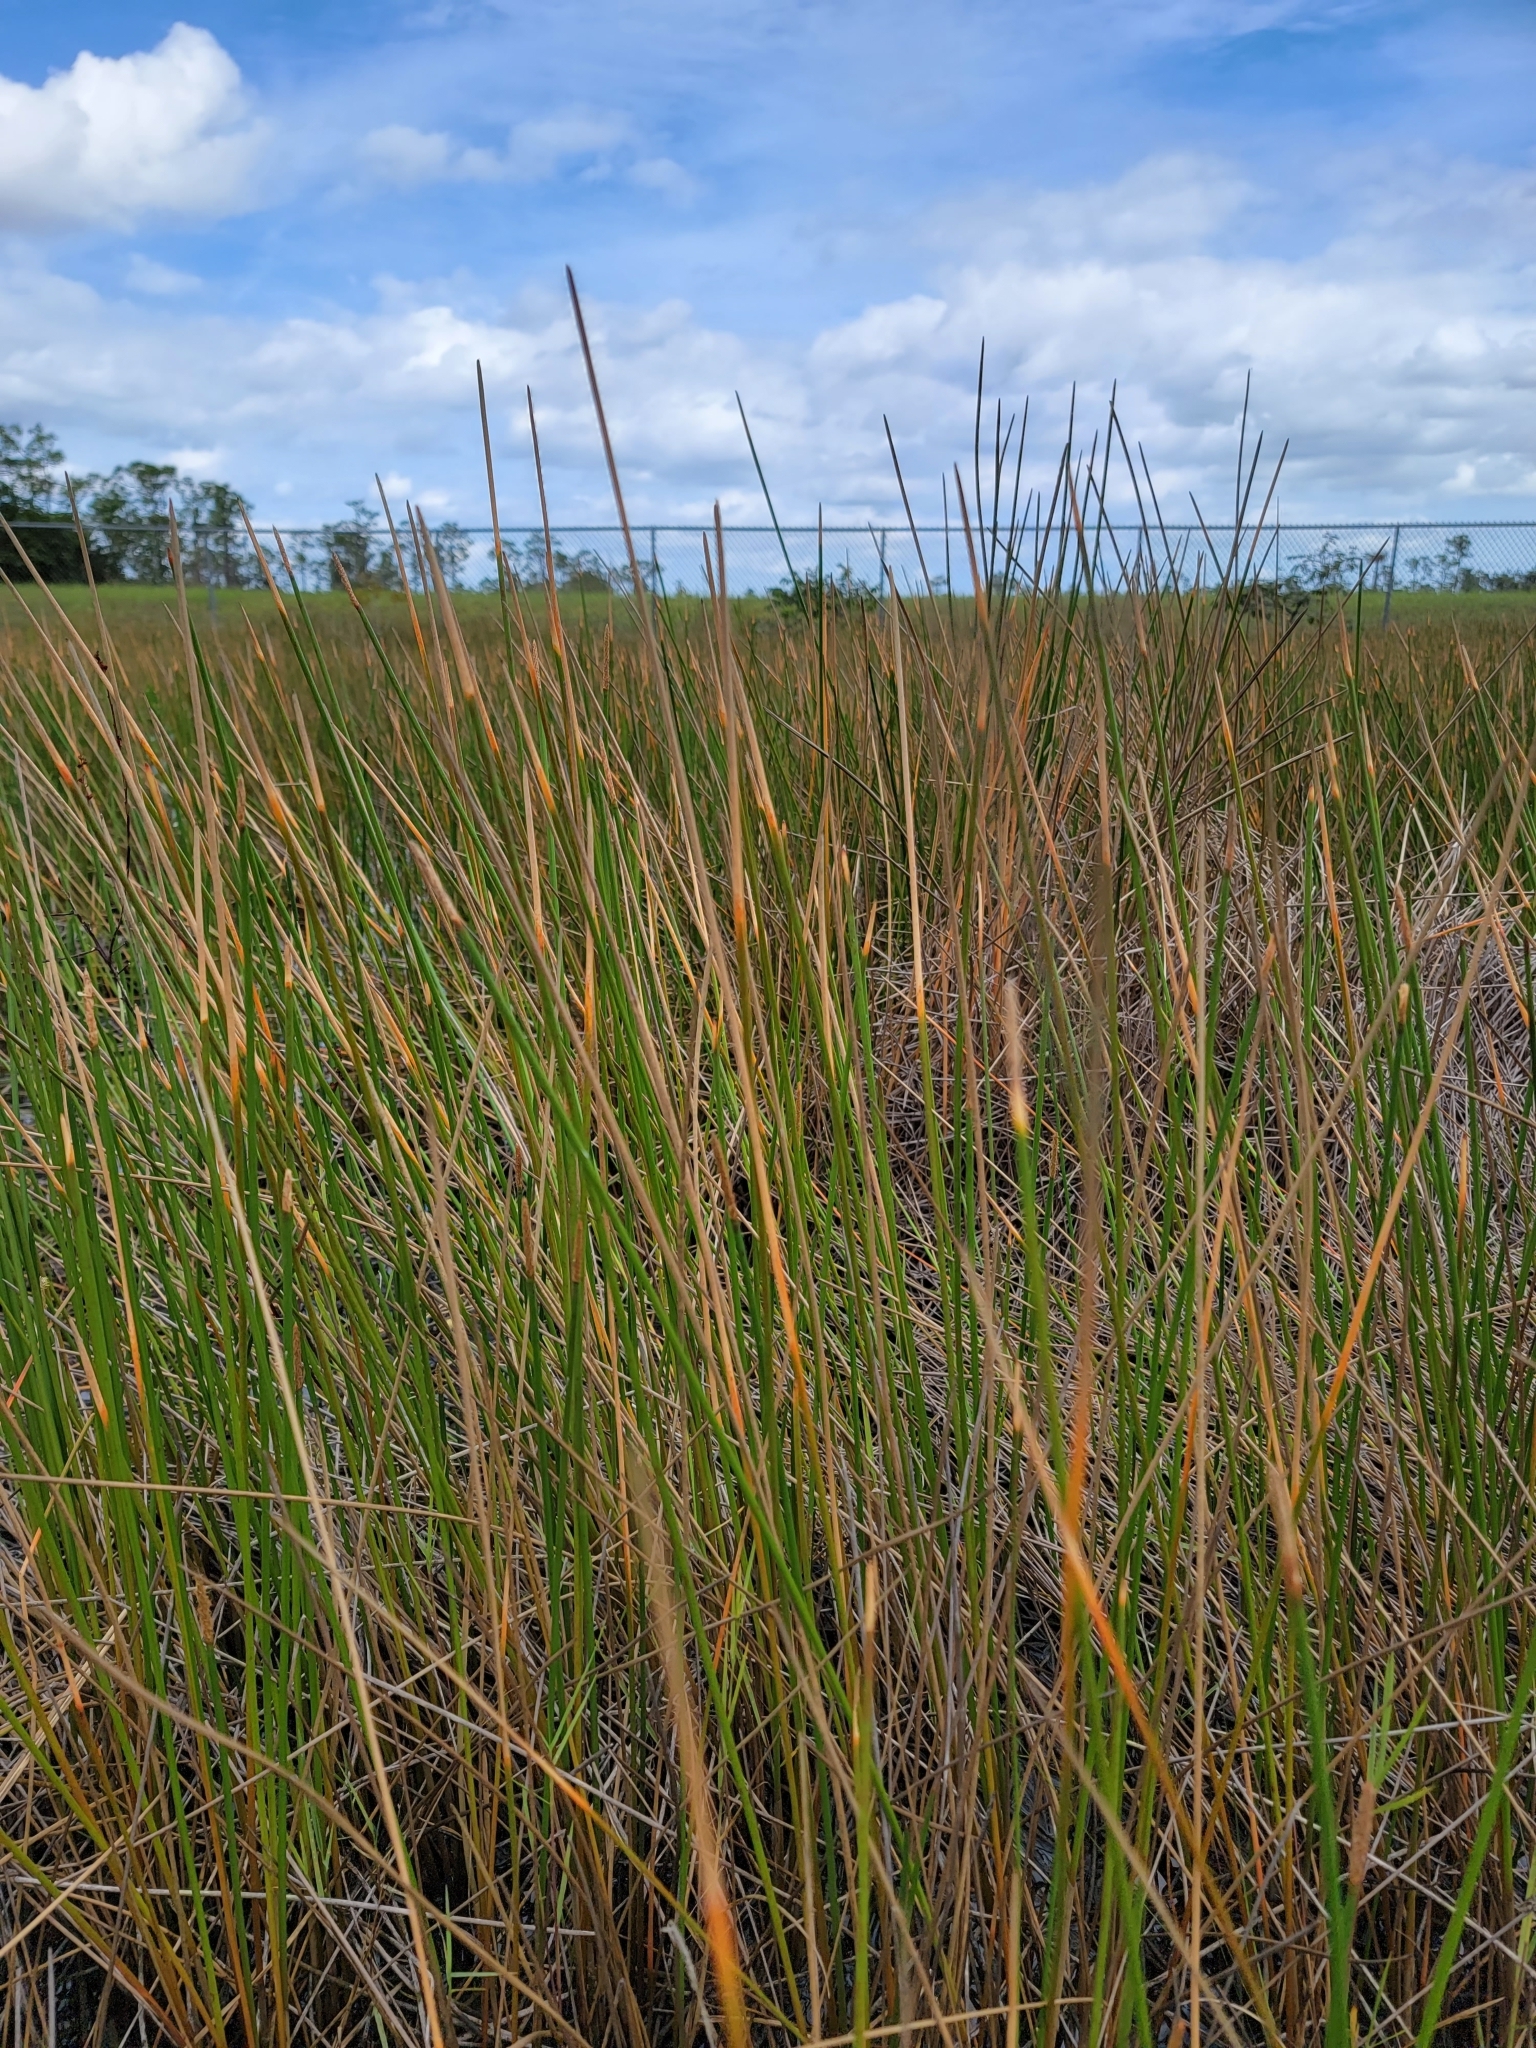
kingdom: Plantae
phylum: Tracheophyta
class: Liliopsida
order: Poales
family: Cyperaceae
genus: Eleocharis
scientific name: Eleocharis cellulosa
